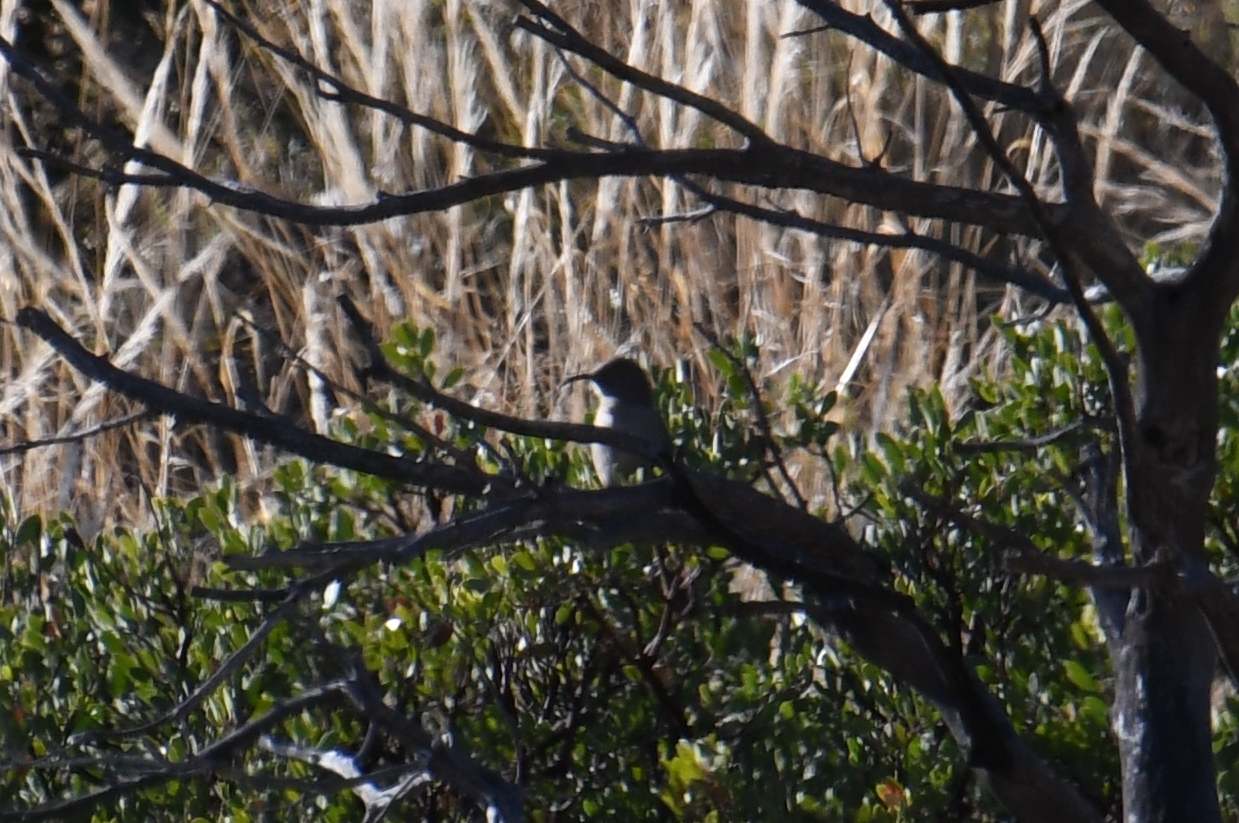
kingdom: Animalia
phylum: Chordata
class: Aves
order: Passeriformes
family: Mimidae
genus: Toxostoma
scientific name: Toxostoma crissale
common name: Crissal thrasher
